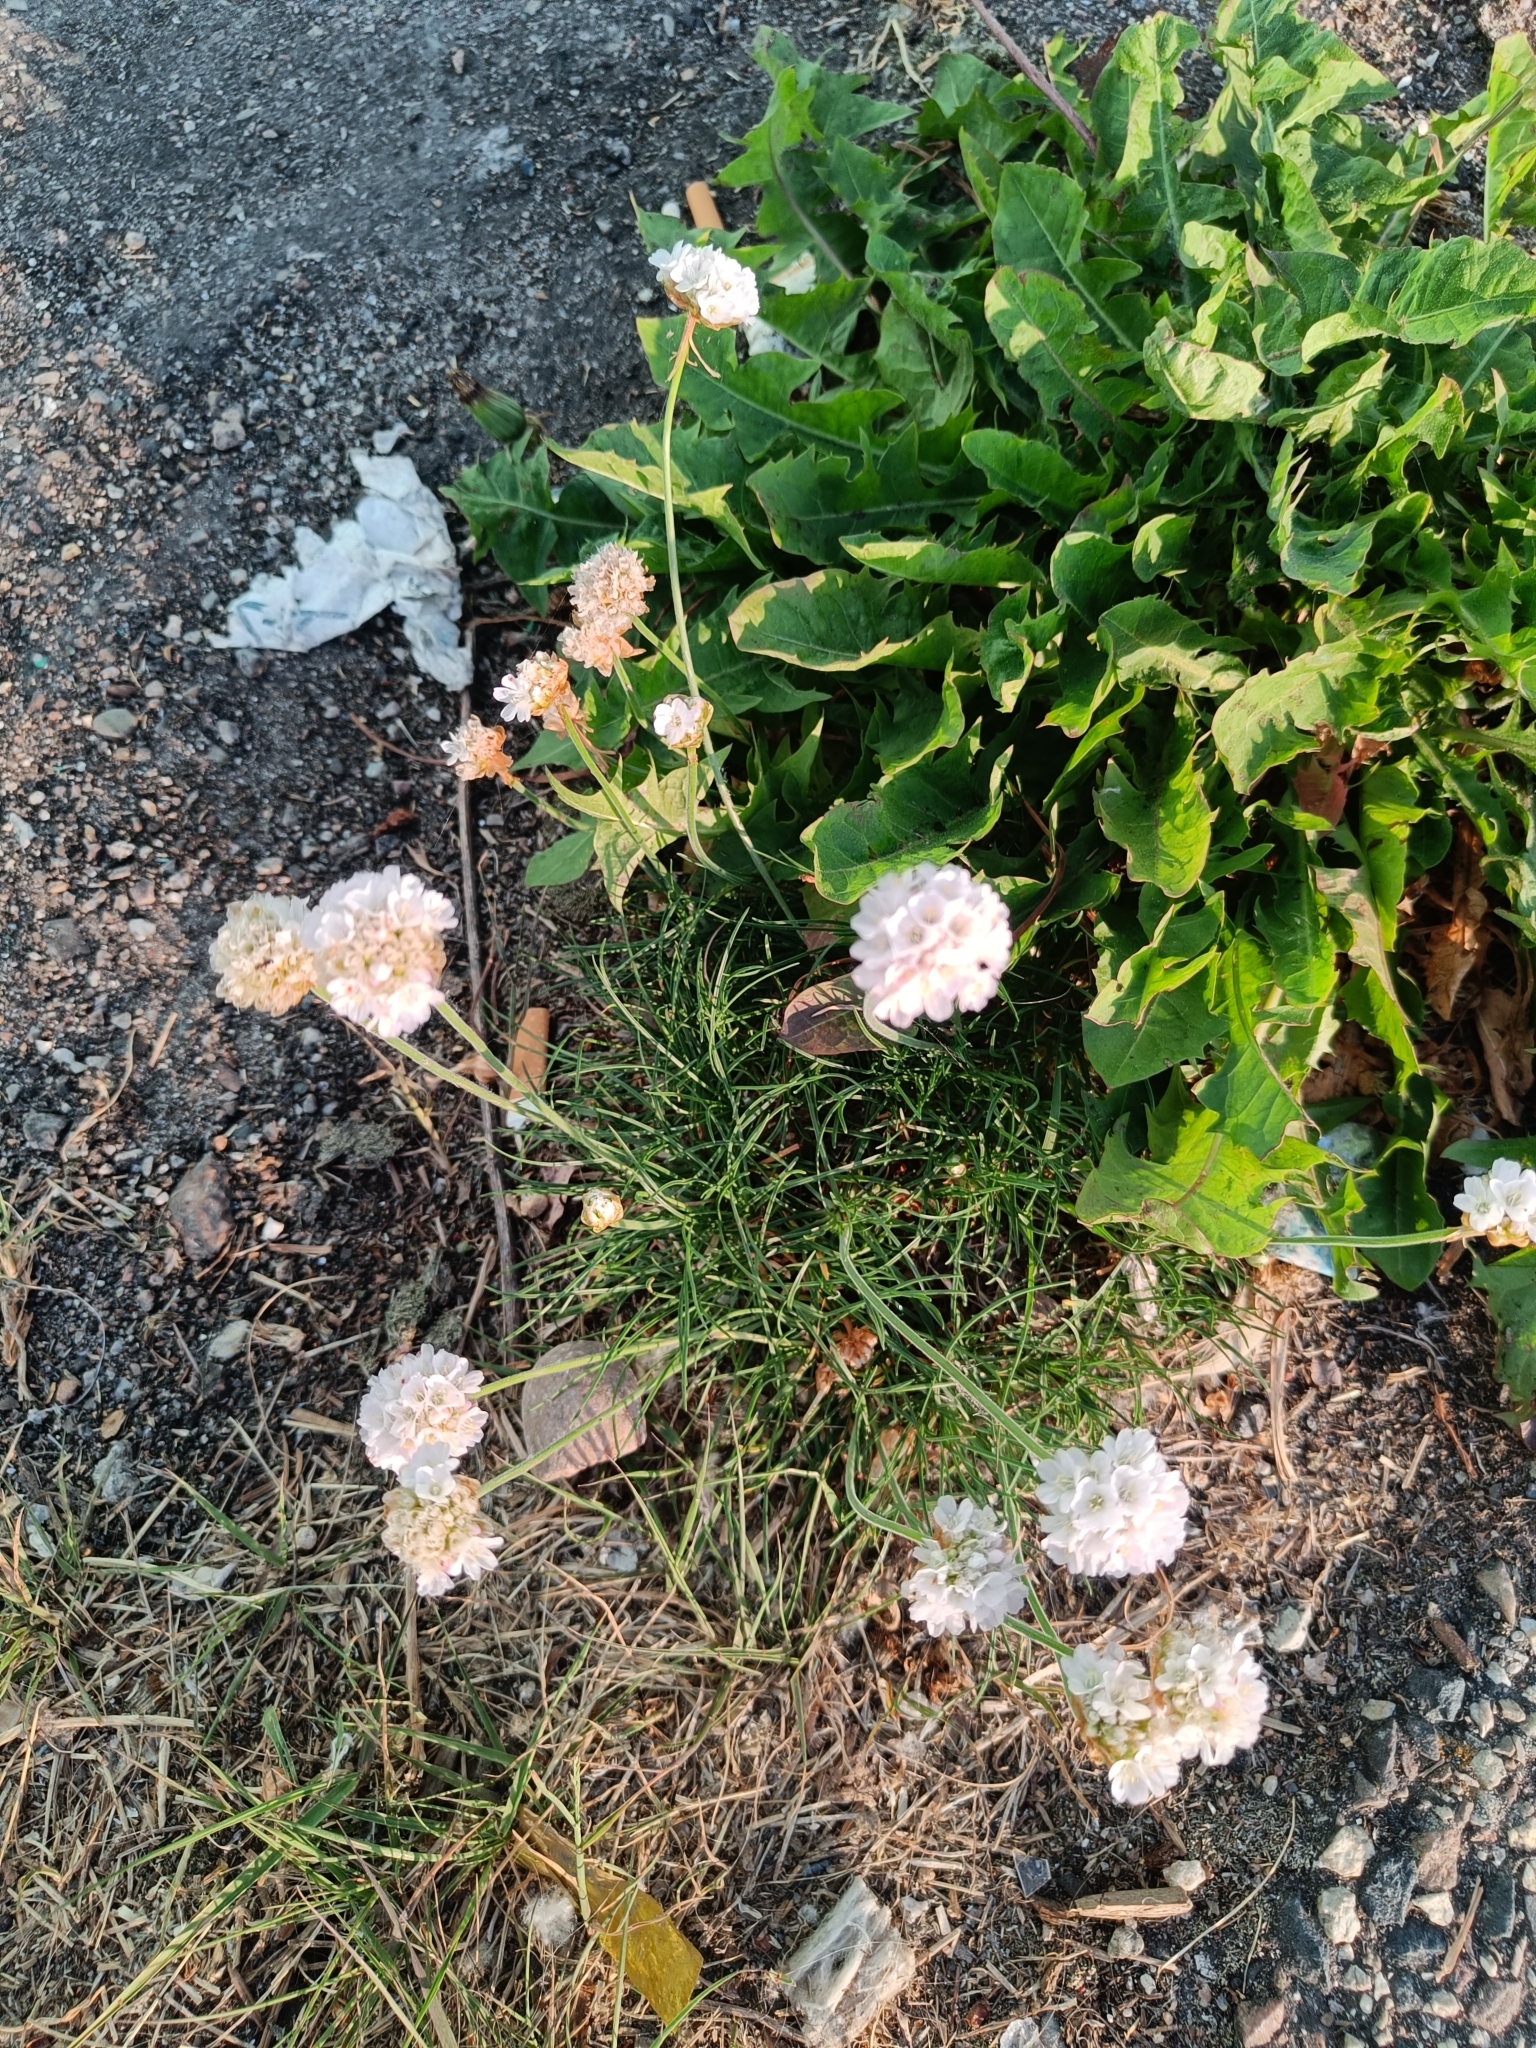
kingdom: Plantae
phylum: Tracheophyta
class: Magnoliopsida
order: Caryophyllales
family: Plumbaginaceae
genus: Armeria
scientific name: Armeria maritima
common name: Thrift
